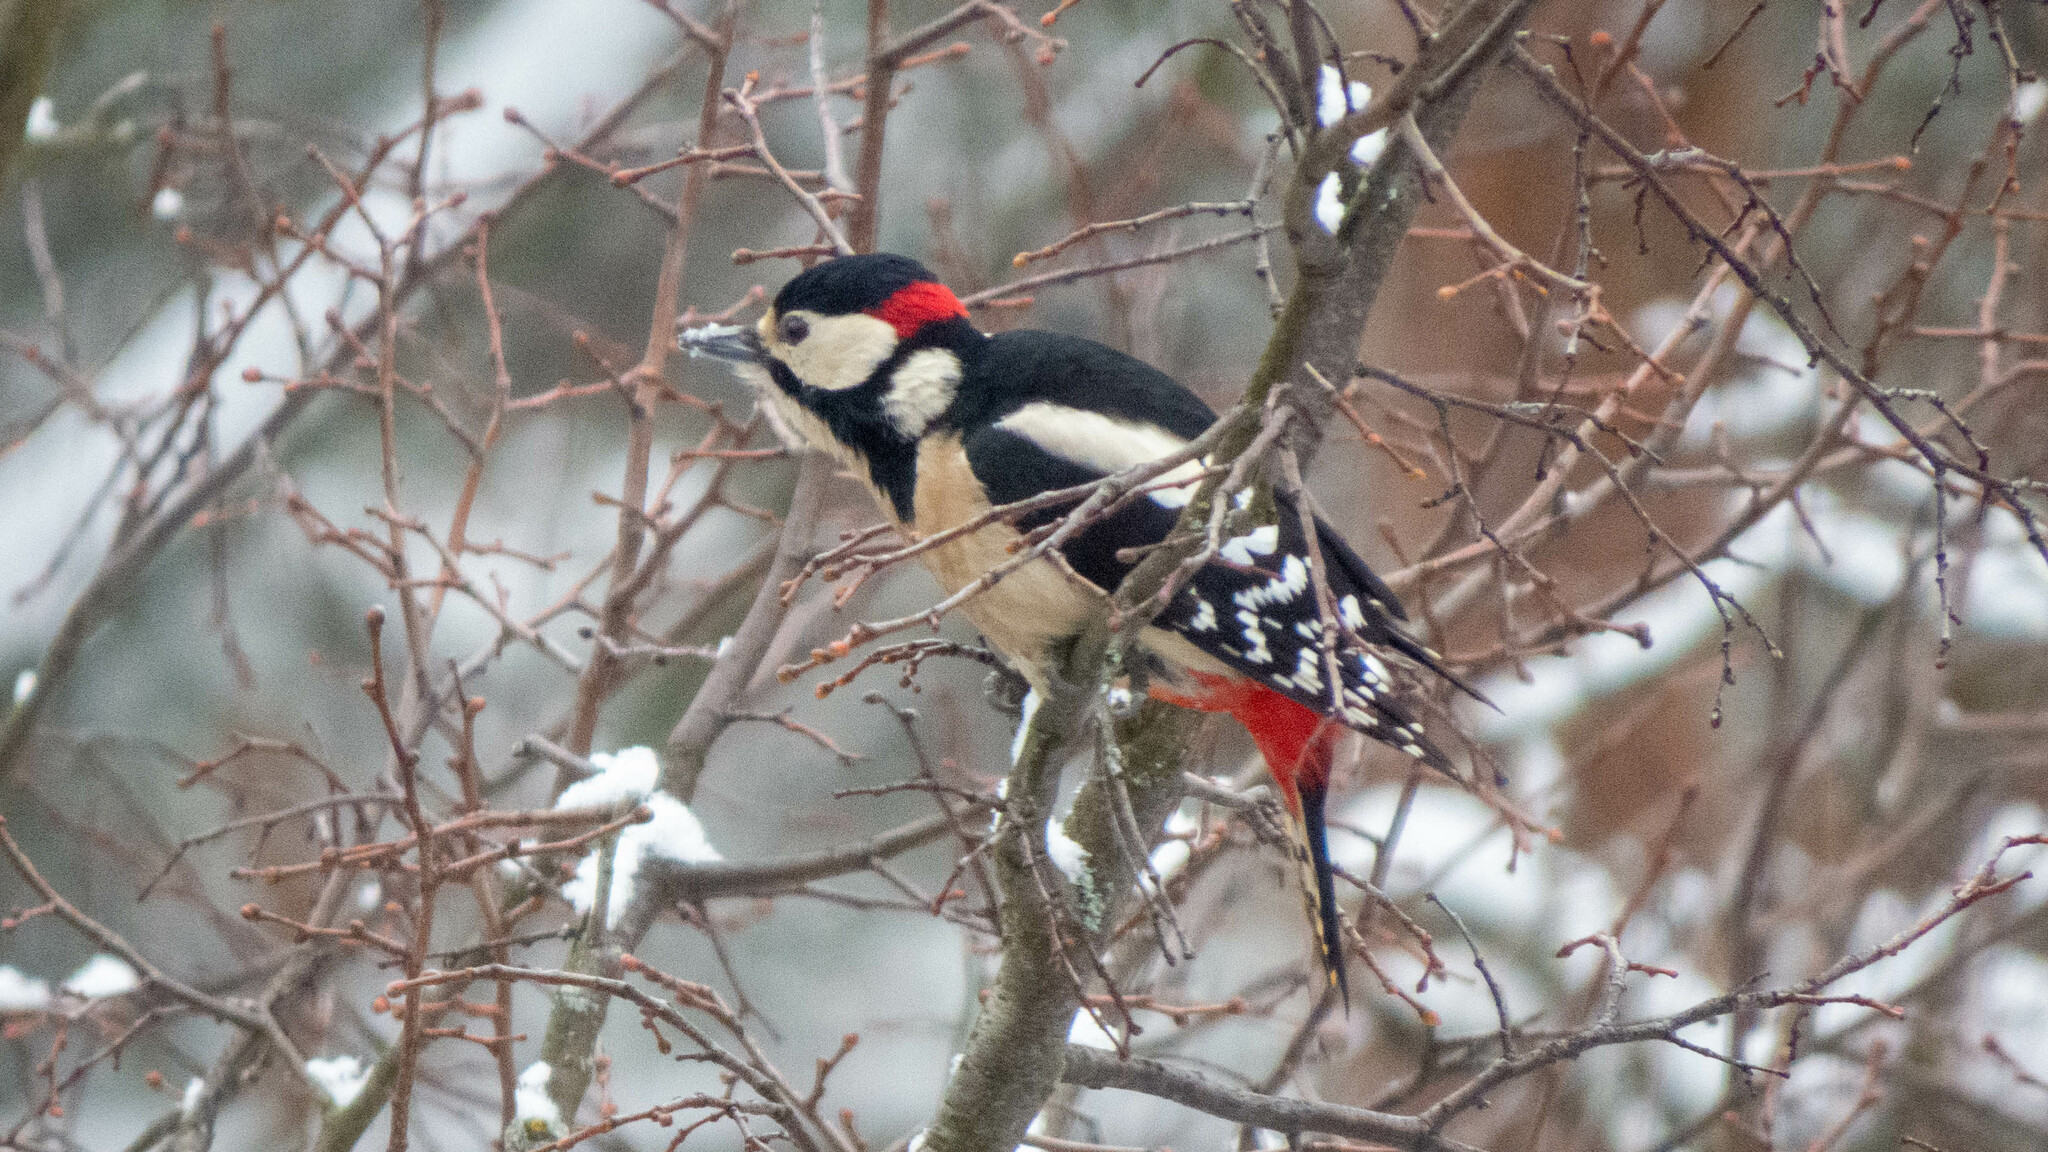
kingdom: Animalia
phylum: Chordata
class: Aves
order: Piciformes
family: Picidae
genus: Dendrocopos
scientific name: Dendrocopos major
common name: Great spotted woodpecker
